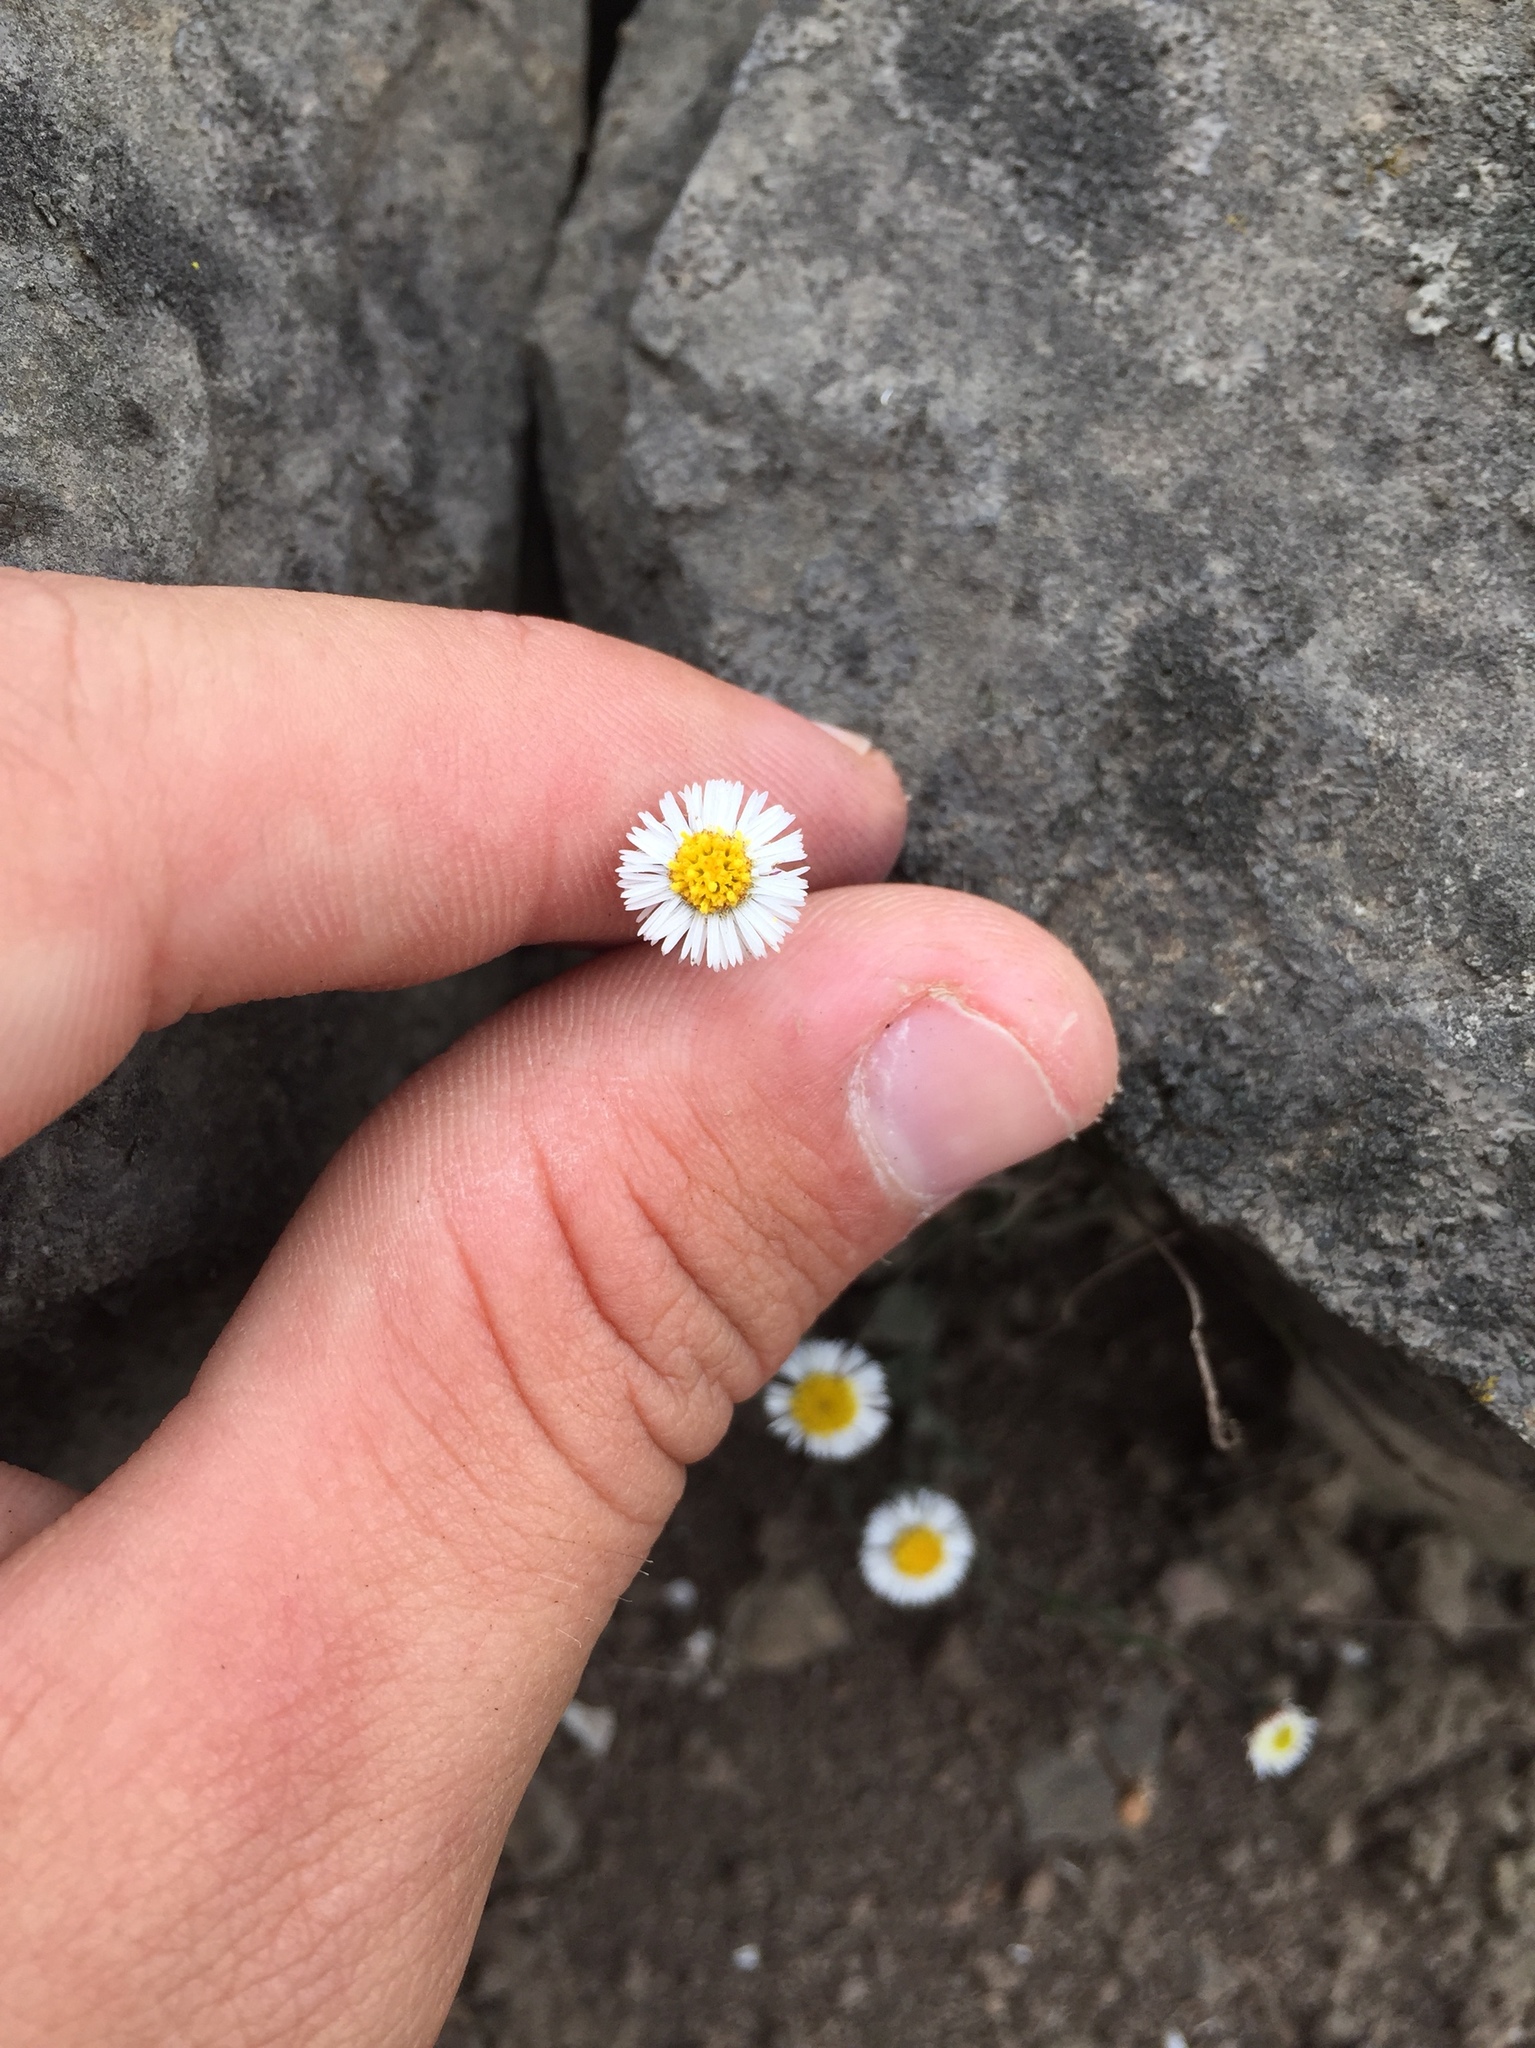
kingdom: Plantae
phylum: Tracheophyta
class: Magnoliopsida
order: Asterales
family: Asteraceae
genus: Erigeron
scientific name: Erigeron leptorhizon
